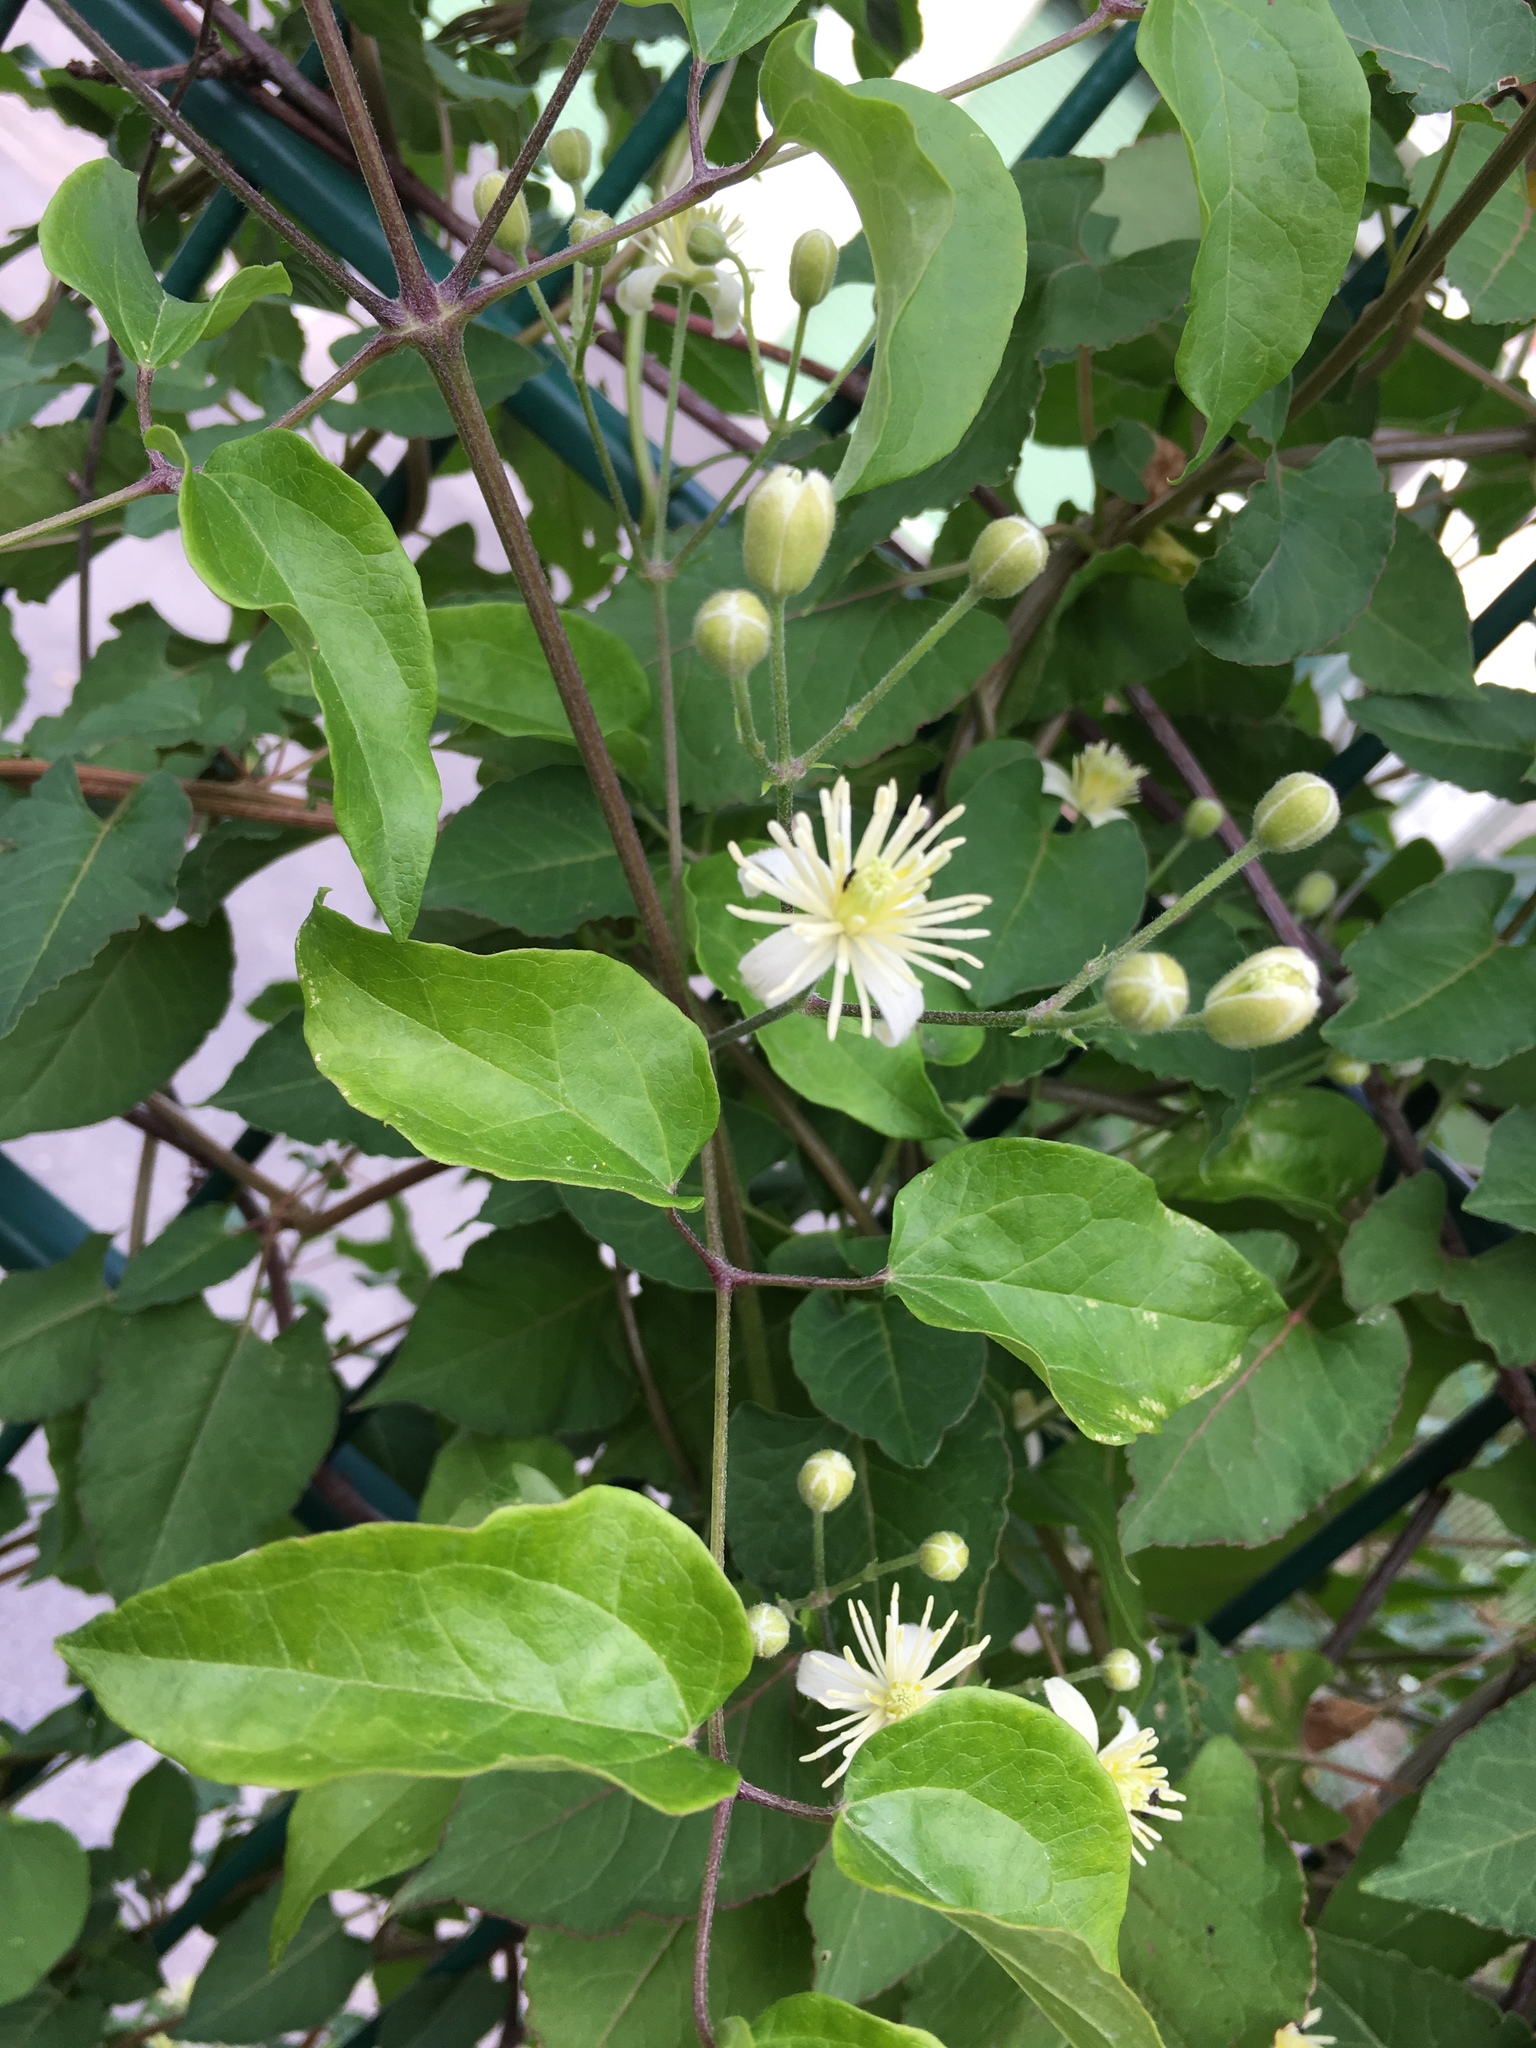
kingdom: Plantae
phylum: Tracheophyta
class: Magnoliopsida
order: Ranunculales
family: Ranunculaceae
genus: Clematis
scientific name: Clematis vitalba
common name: Evergreen clematis
